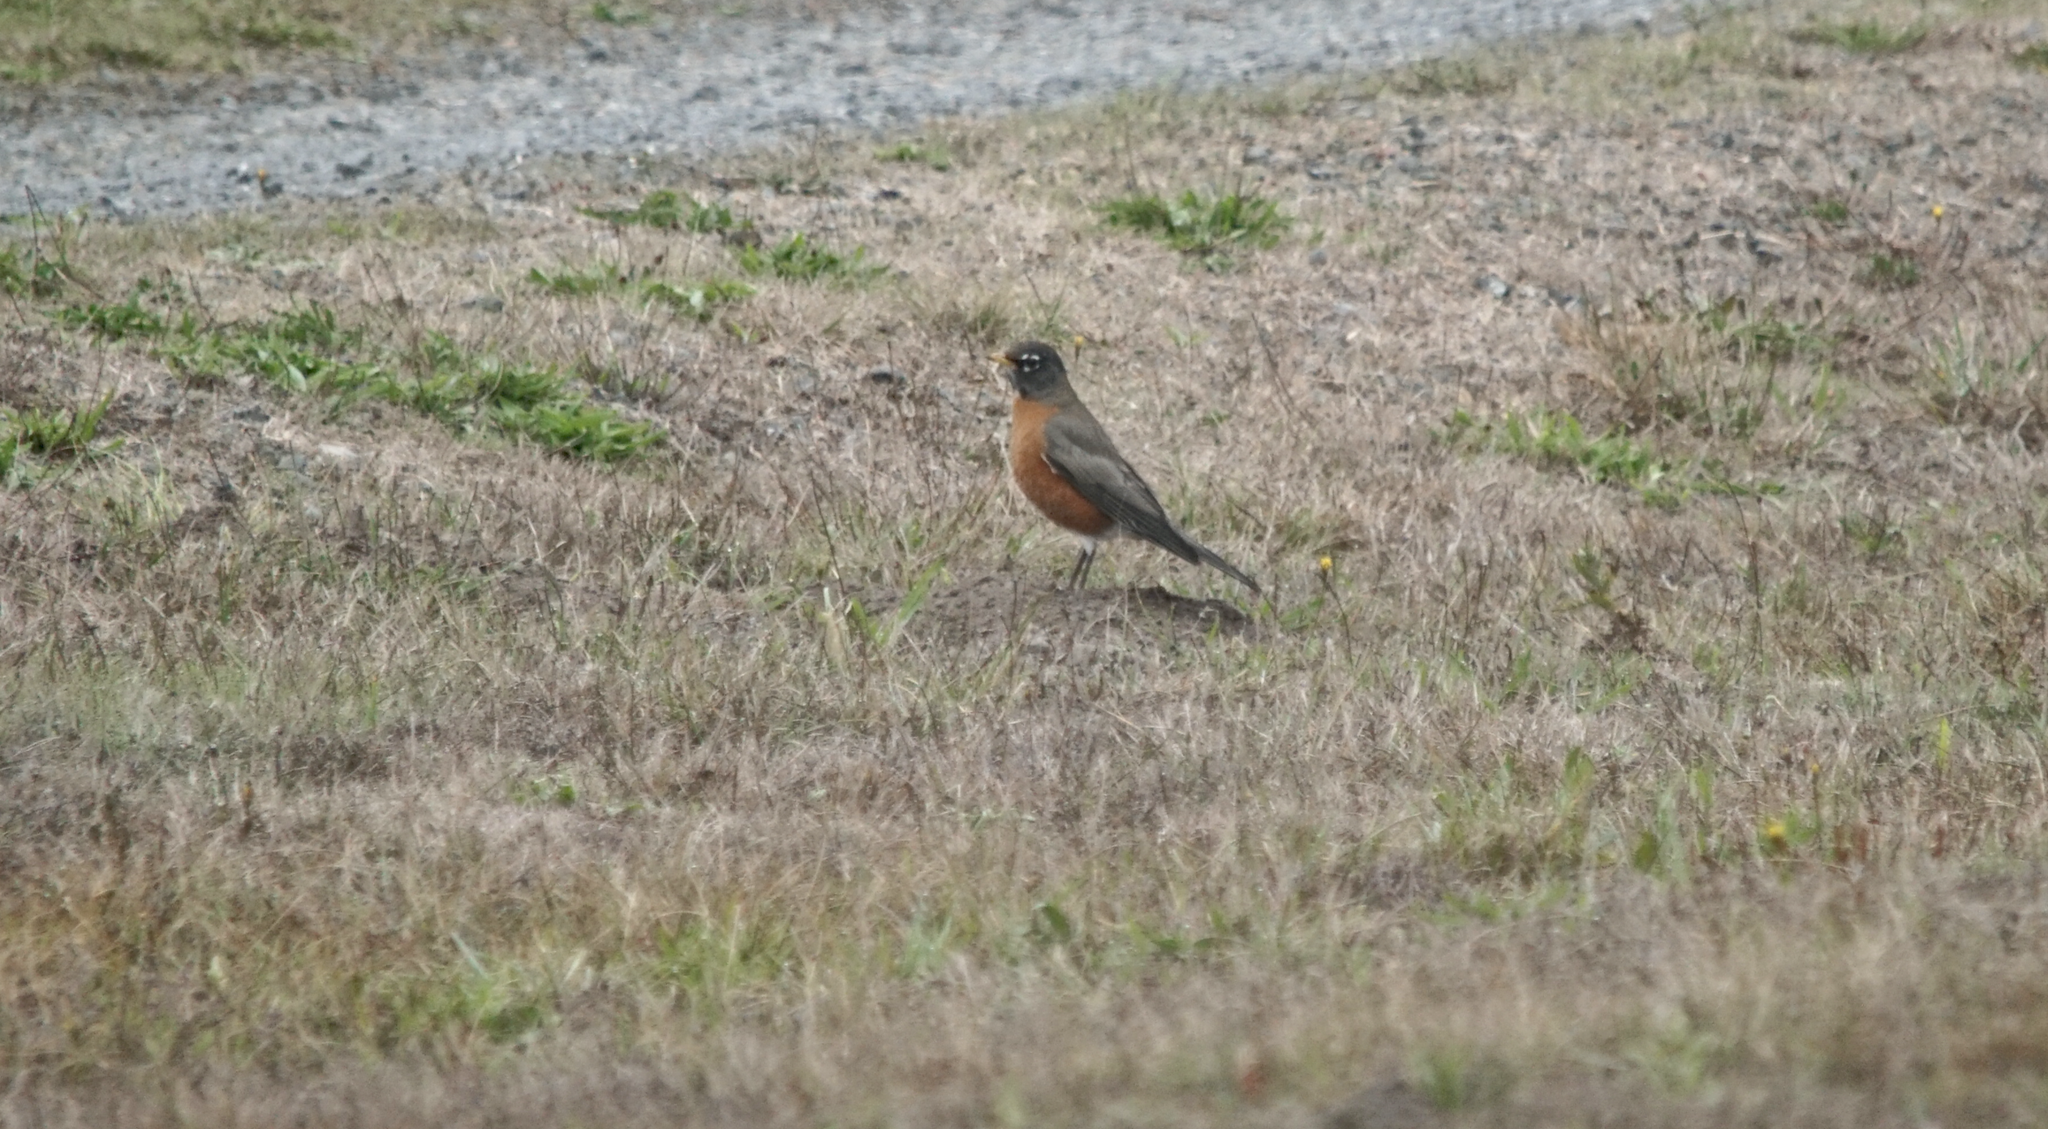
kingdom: Animalia
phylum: Chordata
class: Aves
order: Passeriformes
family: Turdidae
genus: Turdus
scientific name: Turdus migratorius
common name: American robin
